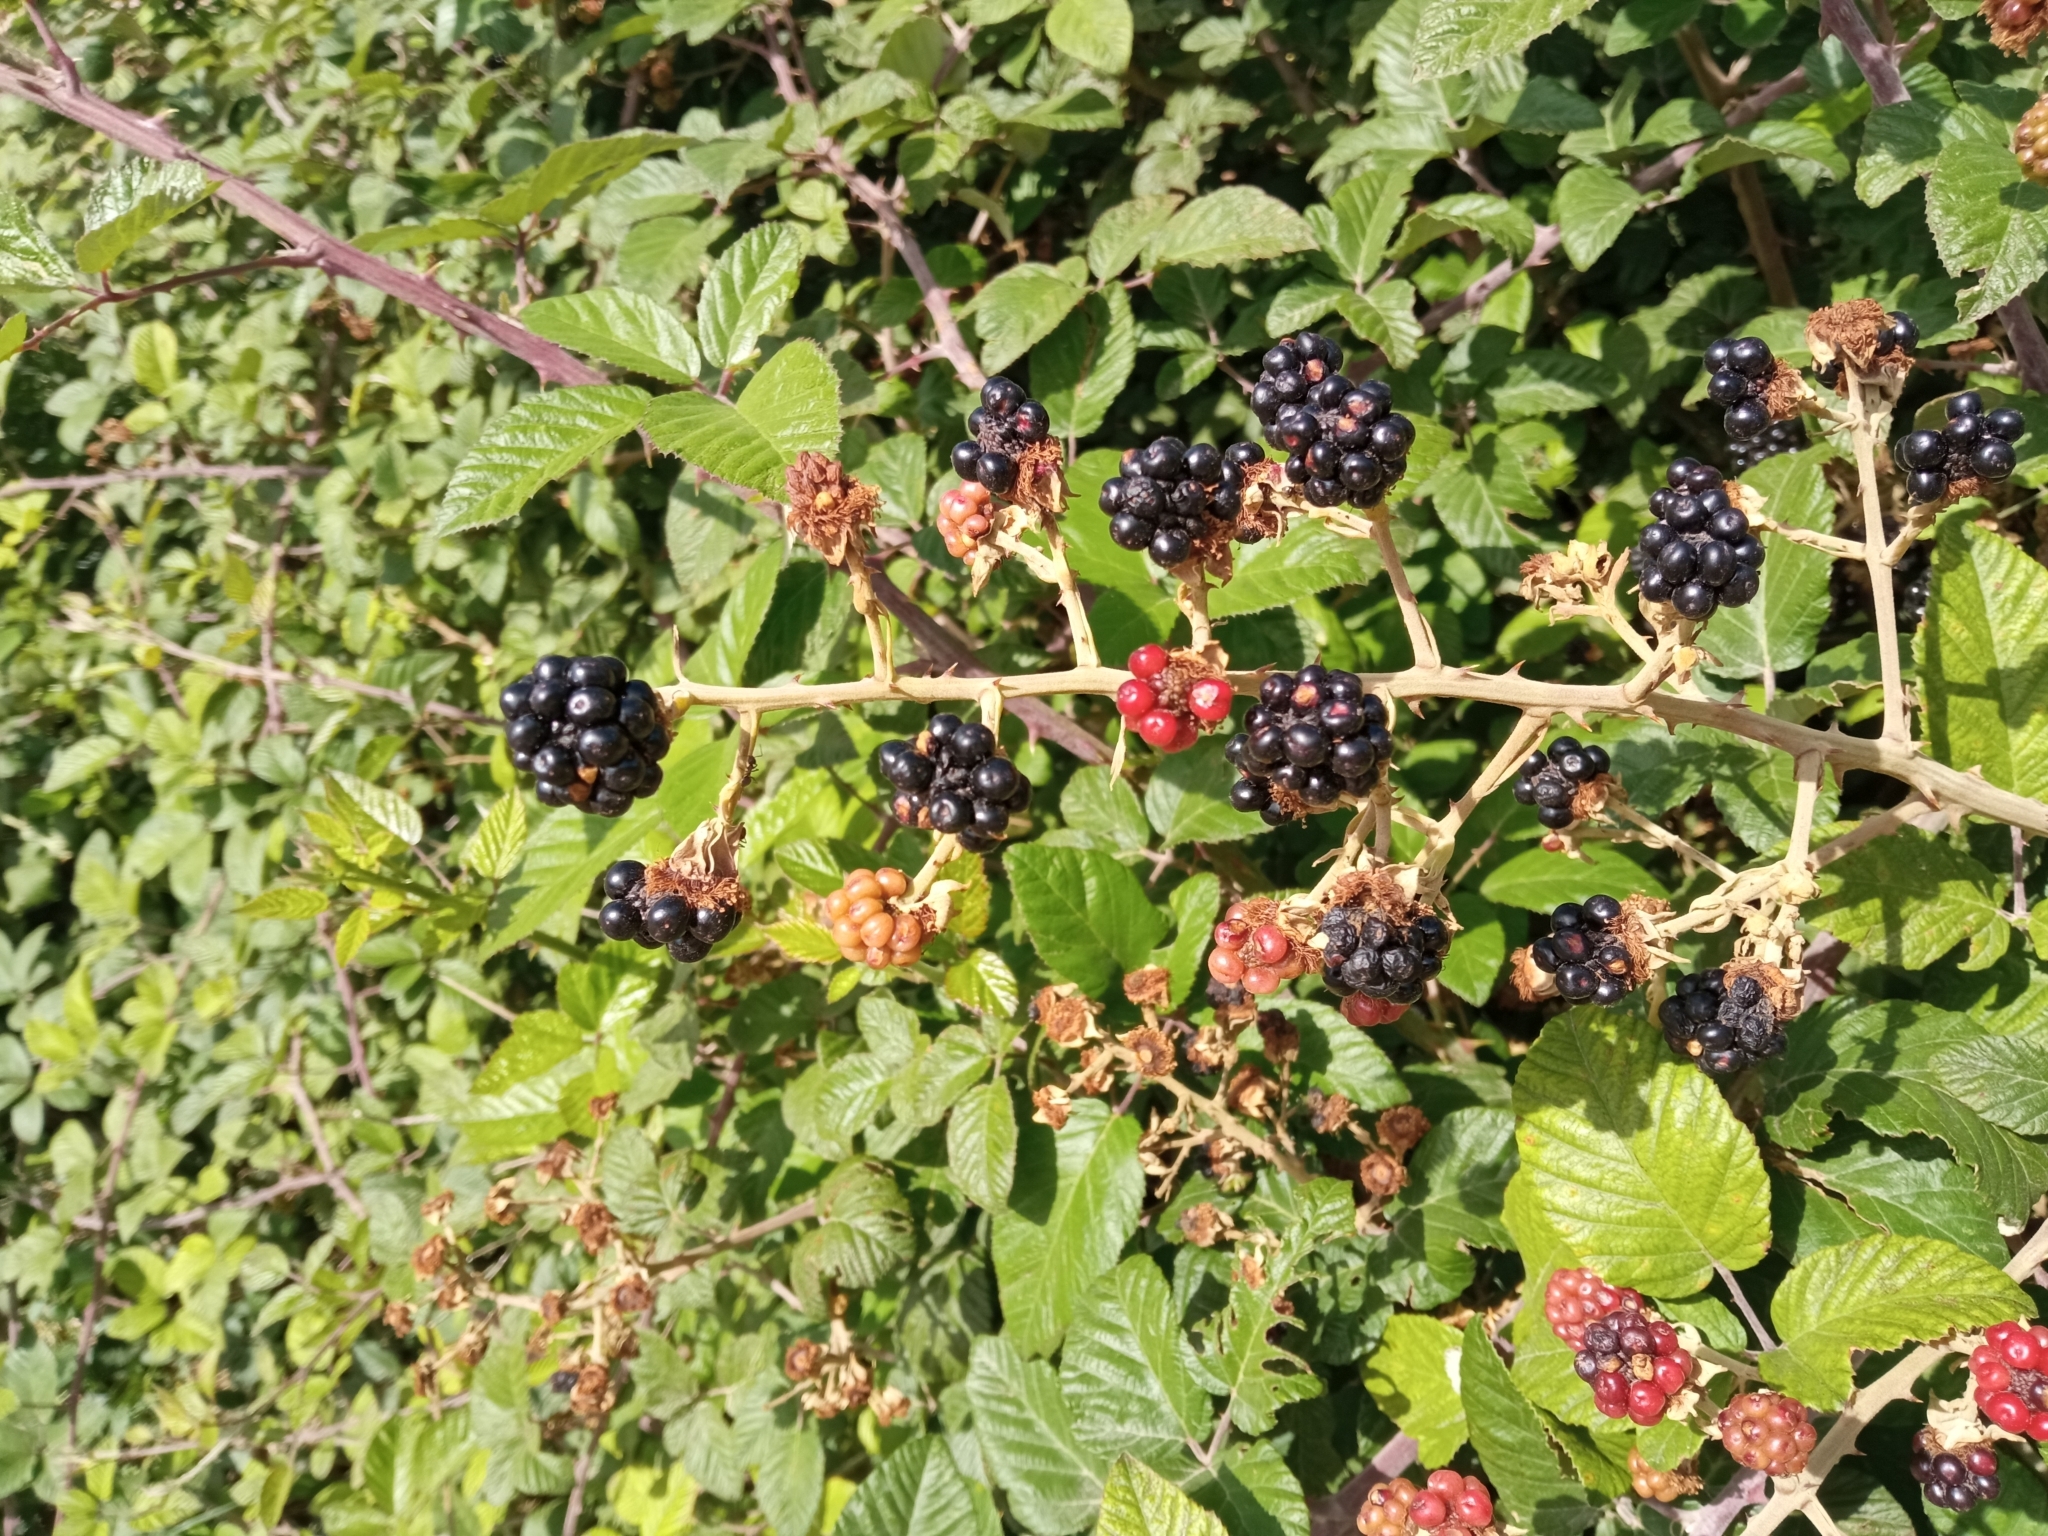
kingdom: Plantae
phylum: Tracheophyta
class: Magnoliopsida
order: Rosales
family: Rosaceae
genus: Rubus
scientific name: Rubus ulmifolius
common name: Elmleaf blackberry
